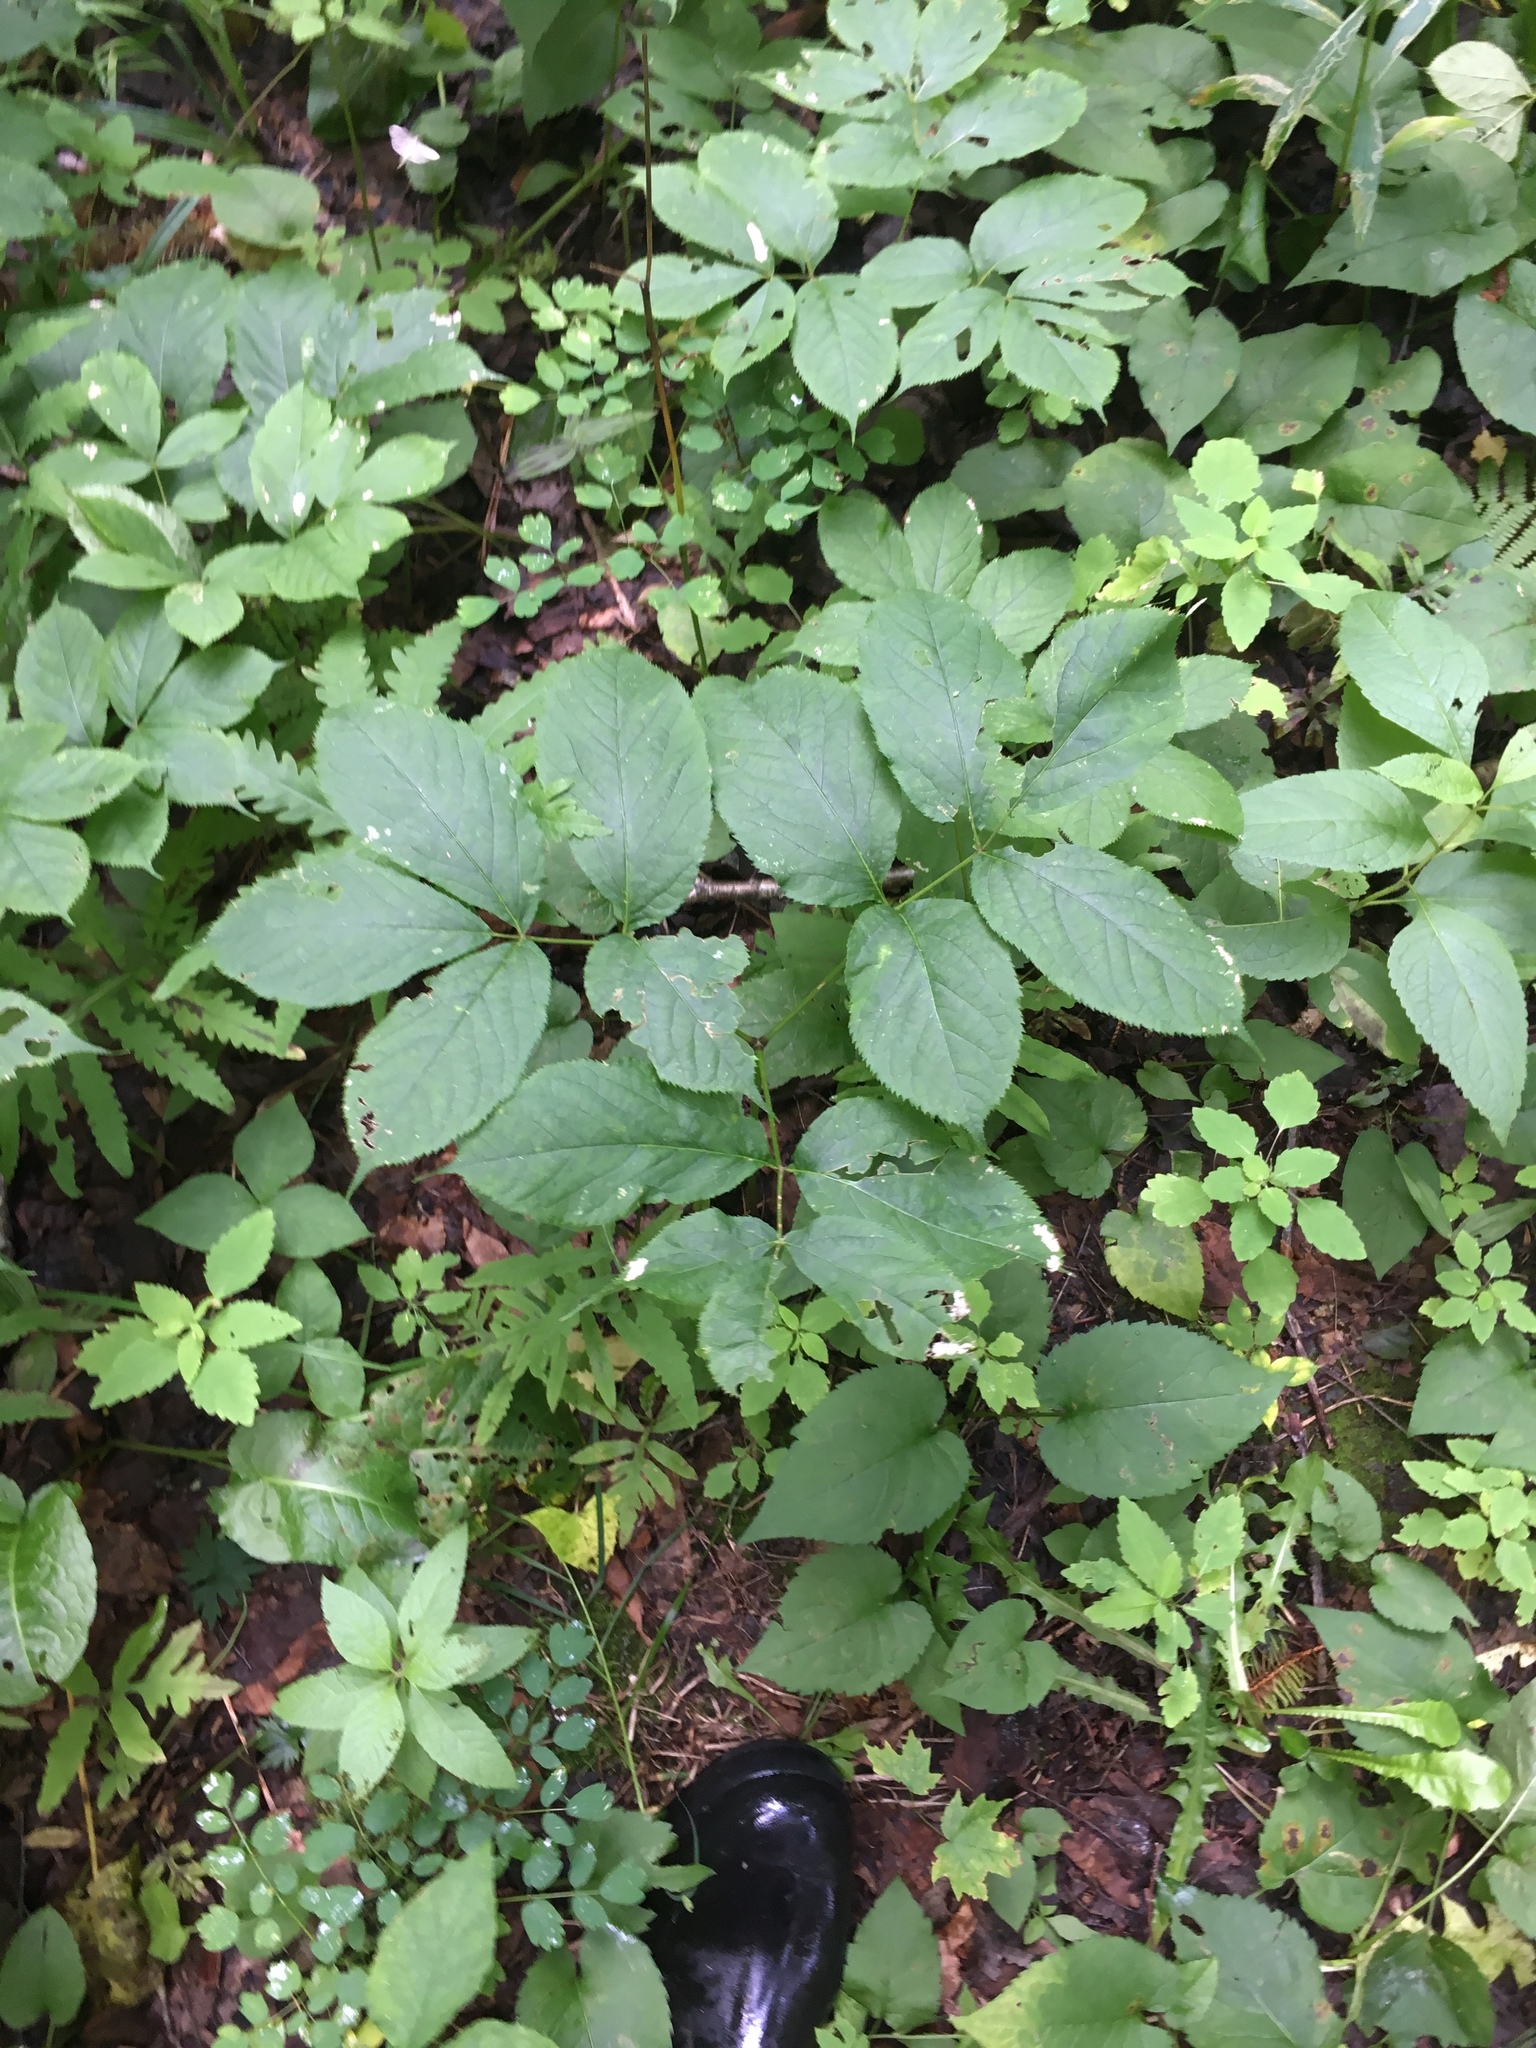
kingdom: Plantae
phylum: Tracheophyta
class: Magnoliopsida
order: Apiales
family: Araliaceae
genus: Aralia
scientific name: Aralia nudicaulis
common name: Wild sarsaparilla
